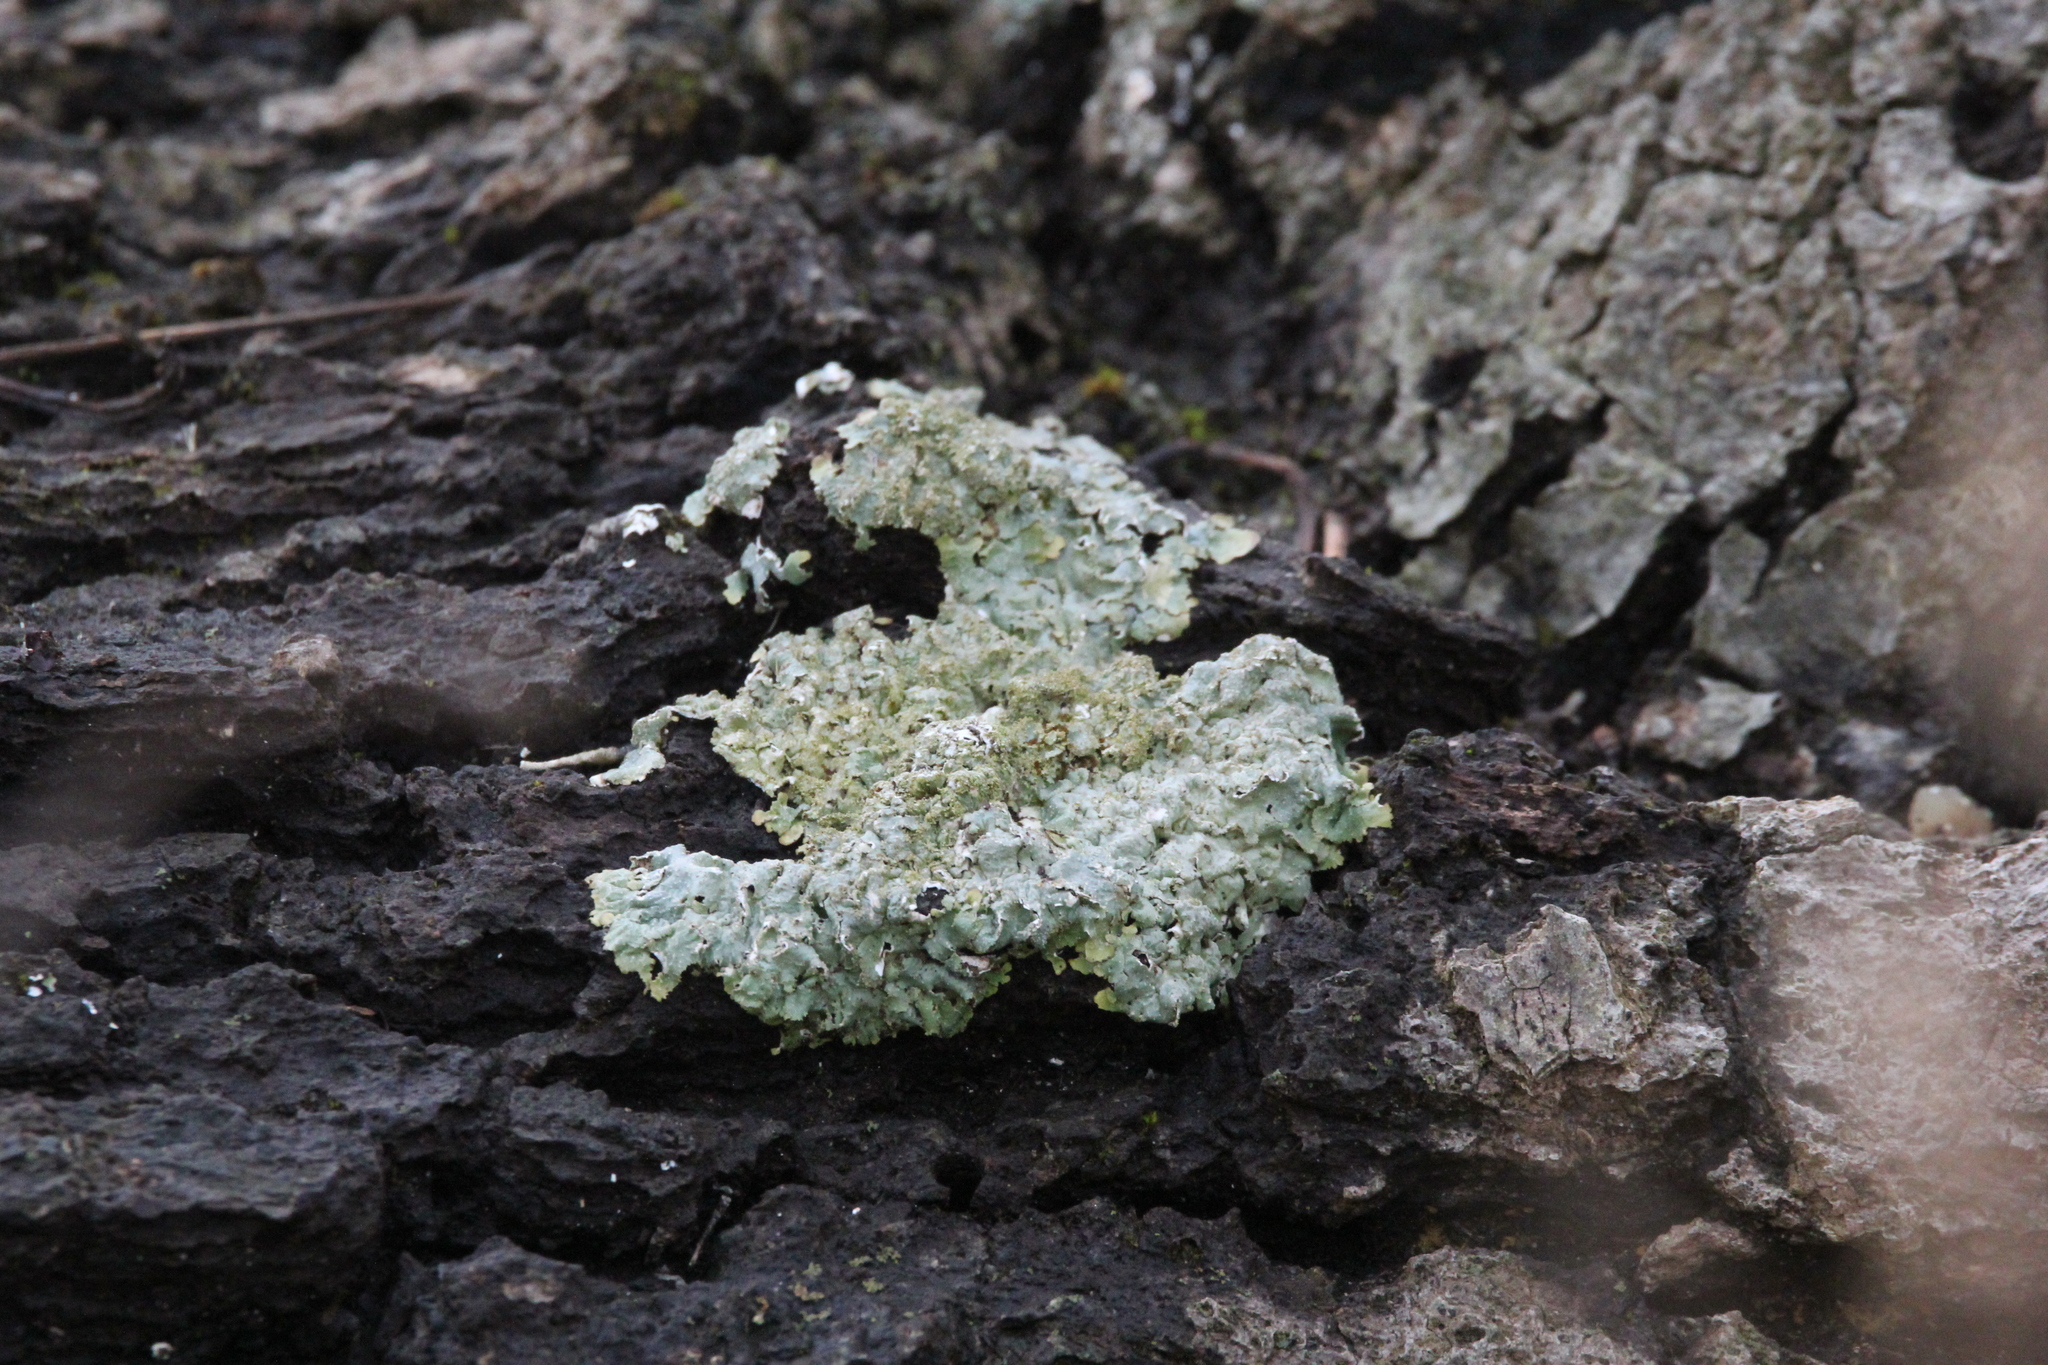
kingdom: Fungi
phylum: Ascomycota
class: Lecanoromycetes
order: Lecanorales
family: Parmeliaceae
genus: Punctelia
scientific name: Punctelia rudecta
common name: Rough speckled shield lichen
